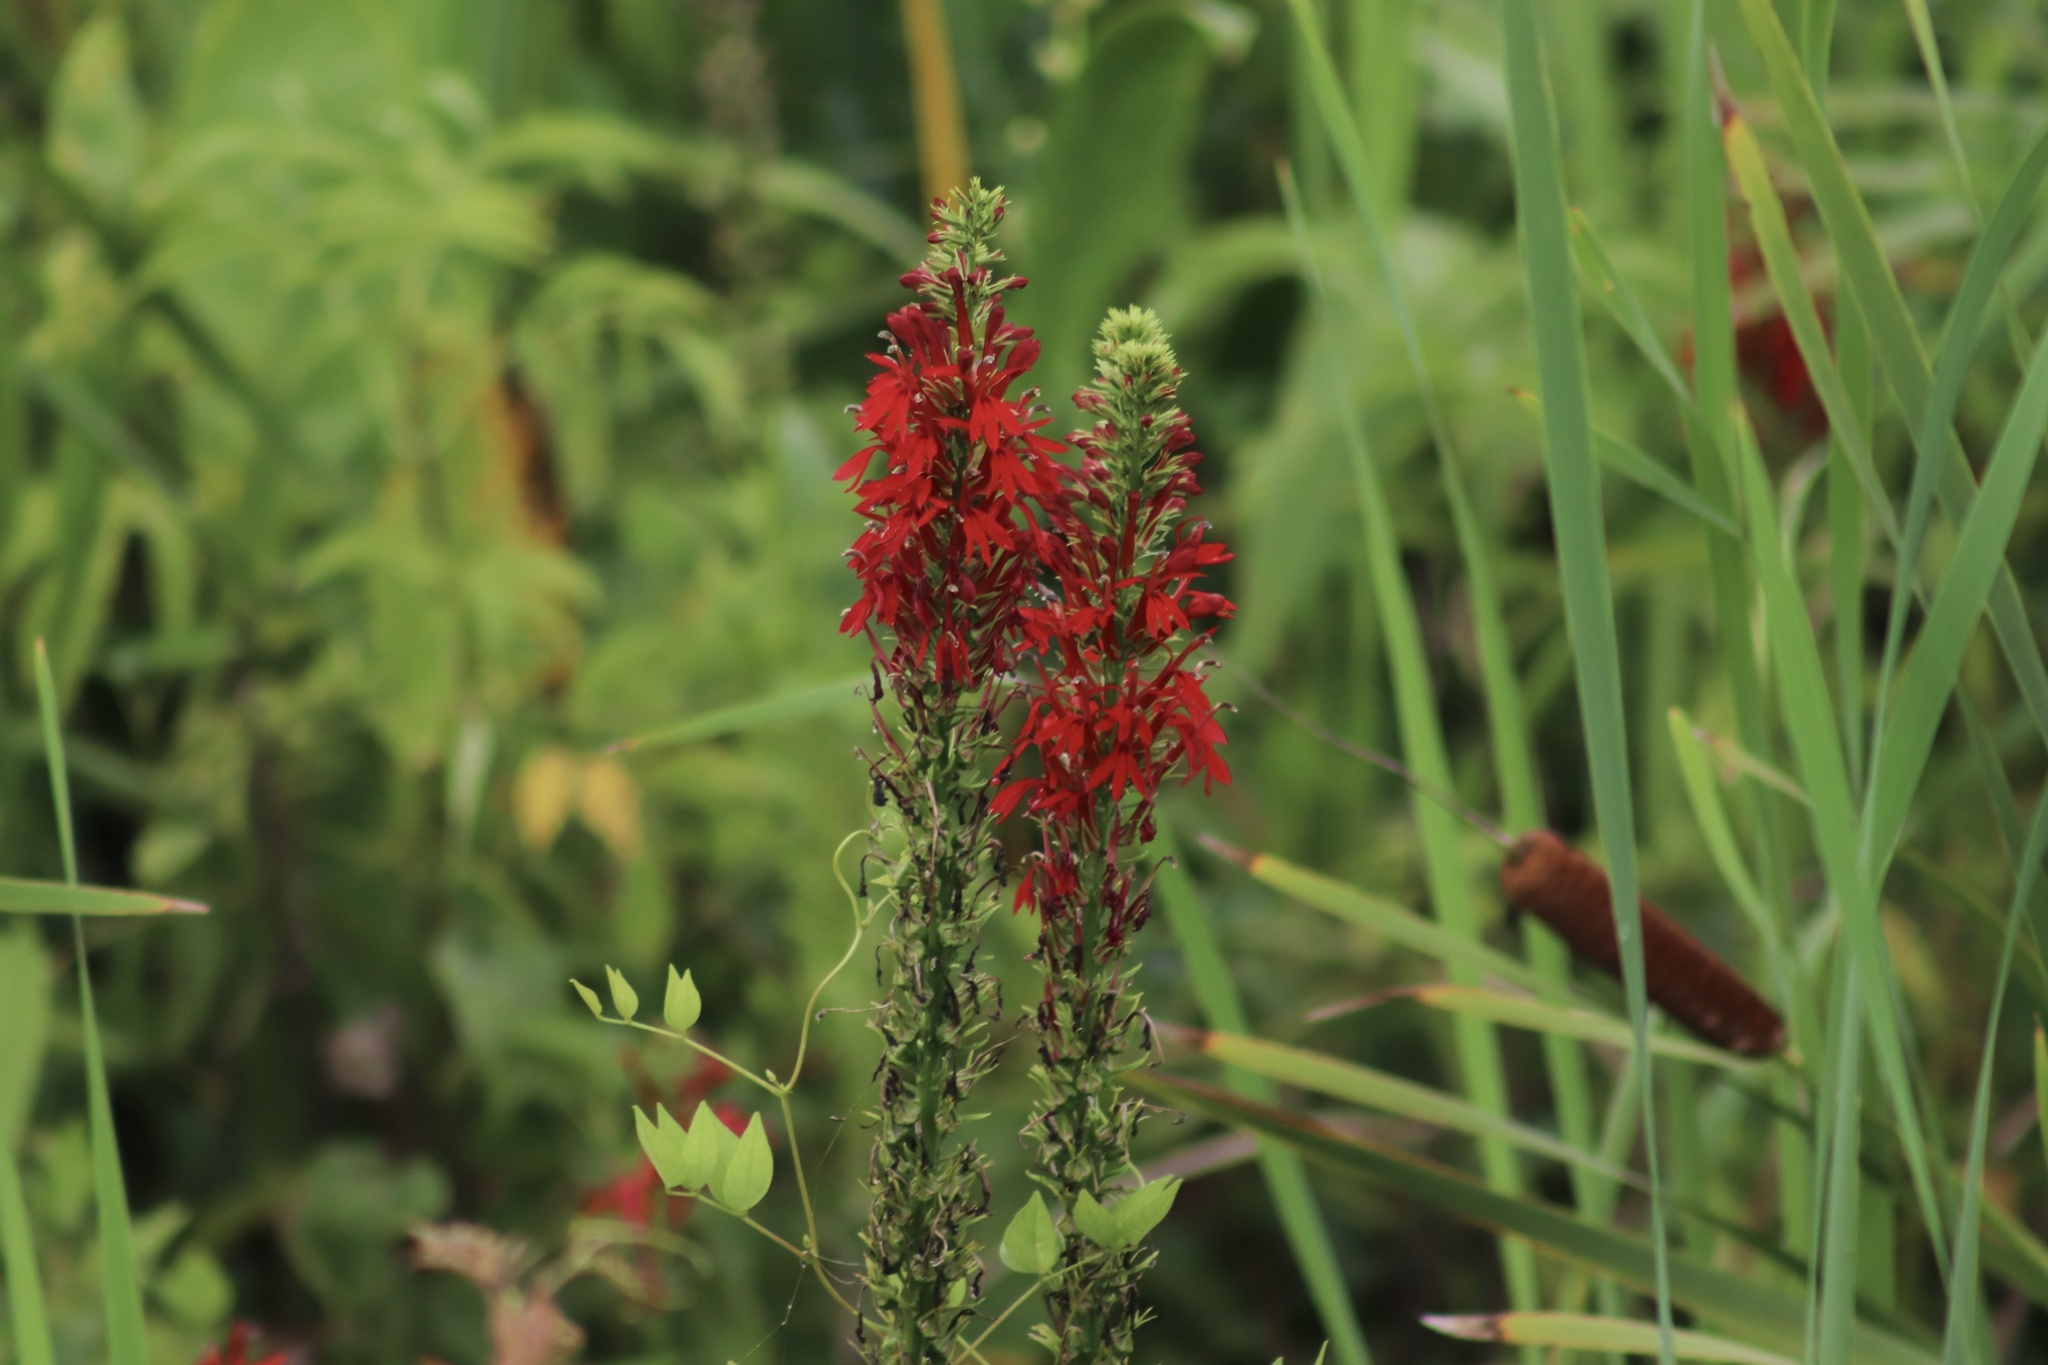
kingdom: Plantae
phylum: Tracheophyta
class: Magnoliopsida
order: Asterales
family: Campanulaceae
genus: Lobelia
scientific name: Lobelia cardinalis
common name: Cardinal flower
